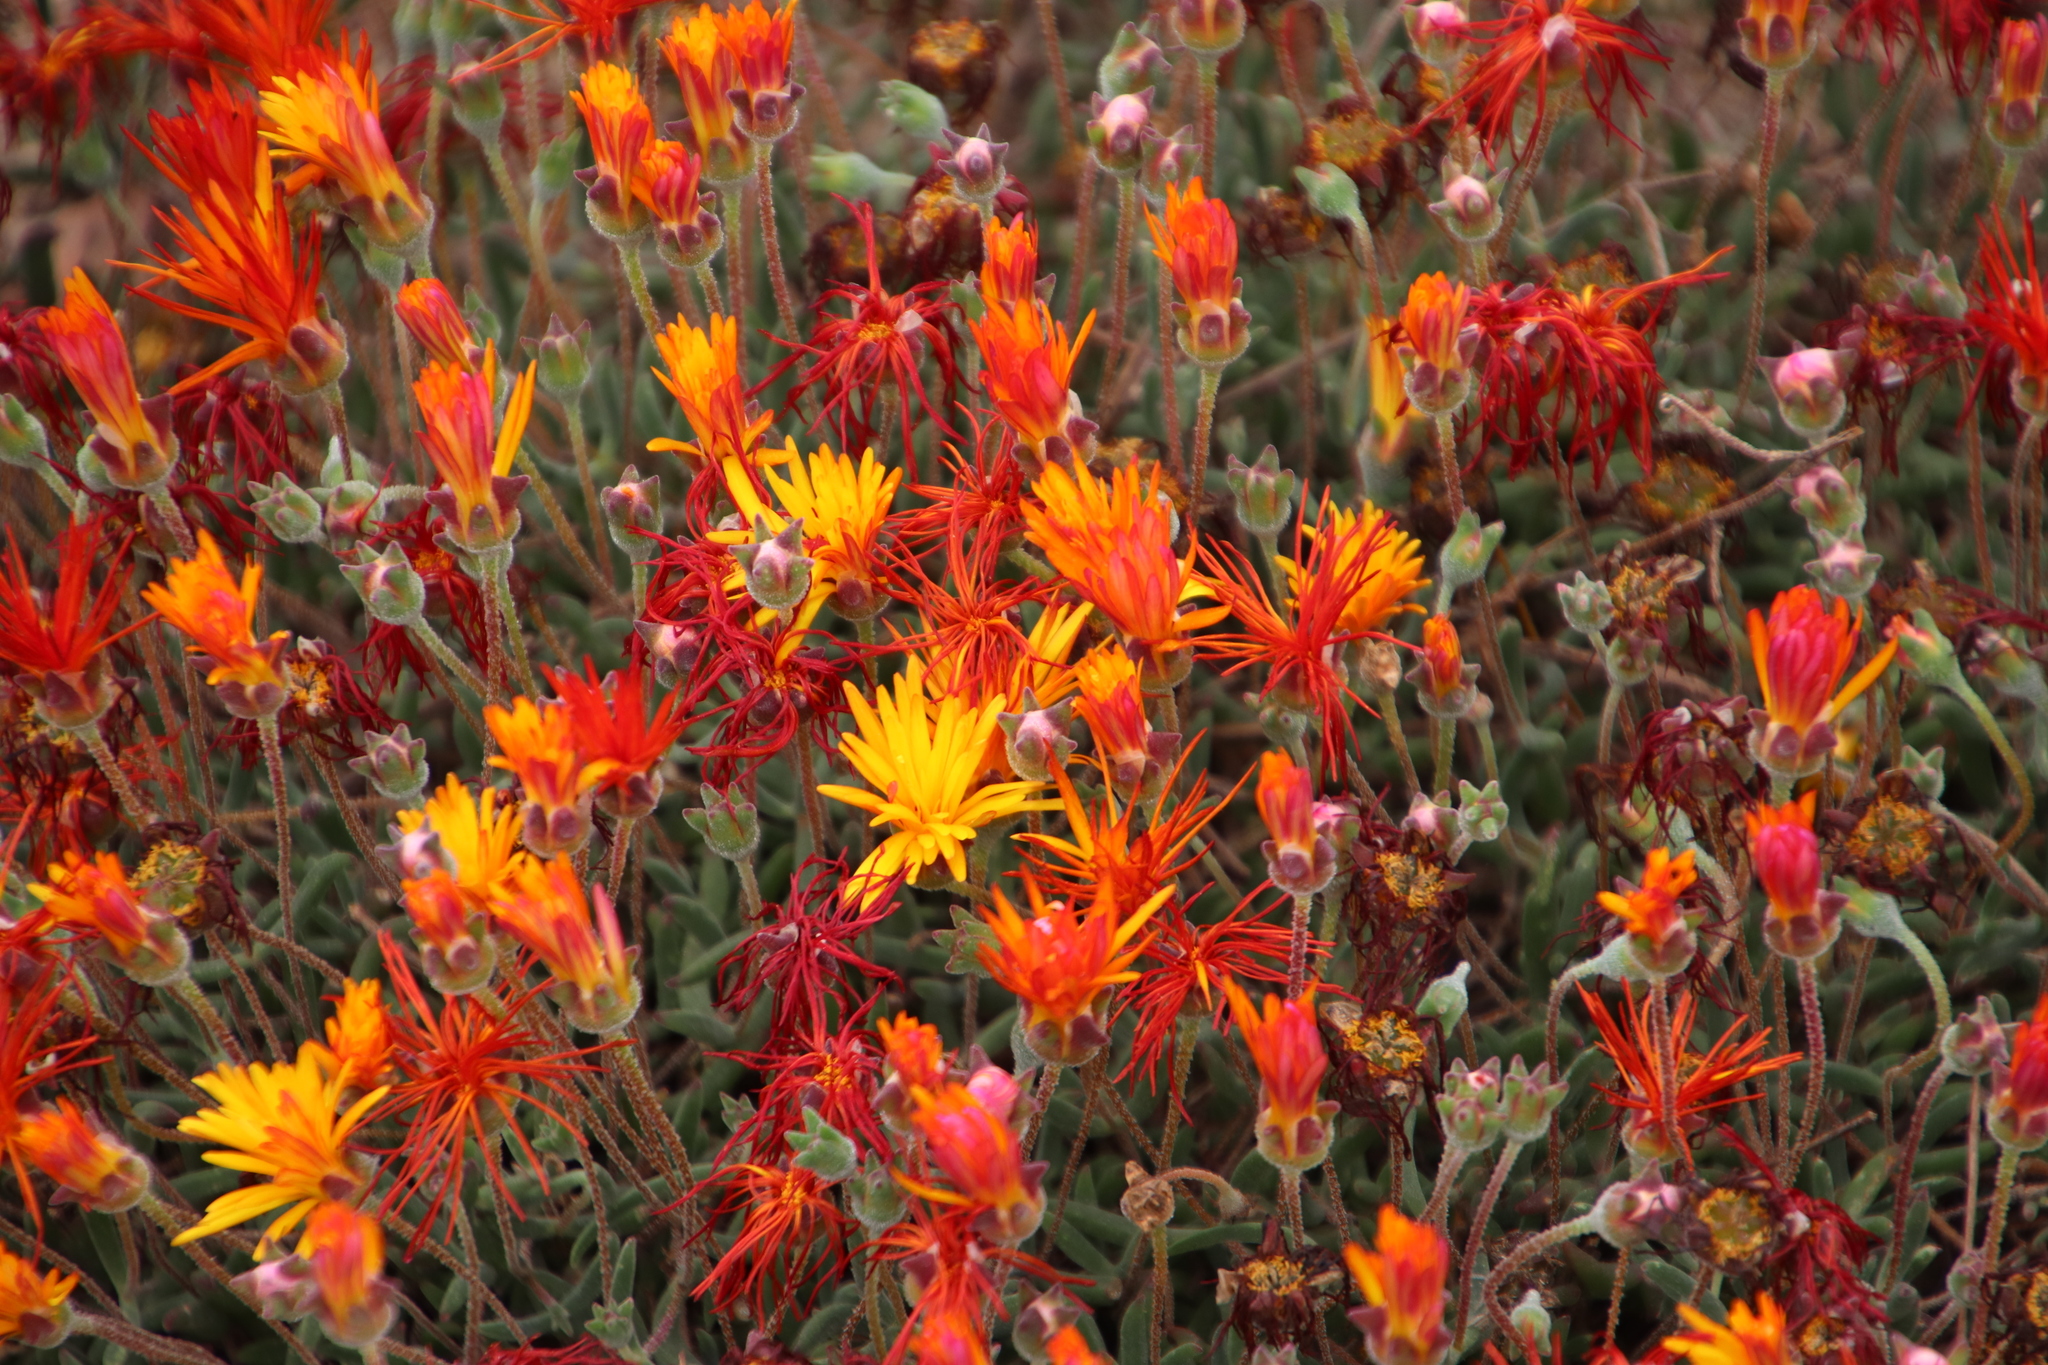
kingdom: Plantae
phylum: Tracheophyta
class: Magnoliopsida
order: Caryophyllales
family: Aizoaceae
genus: Drosanthemum
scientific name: Drosanthemum flavum
